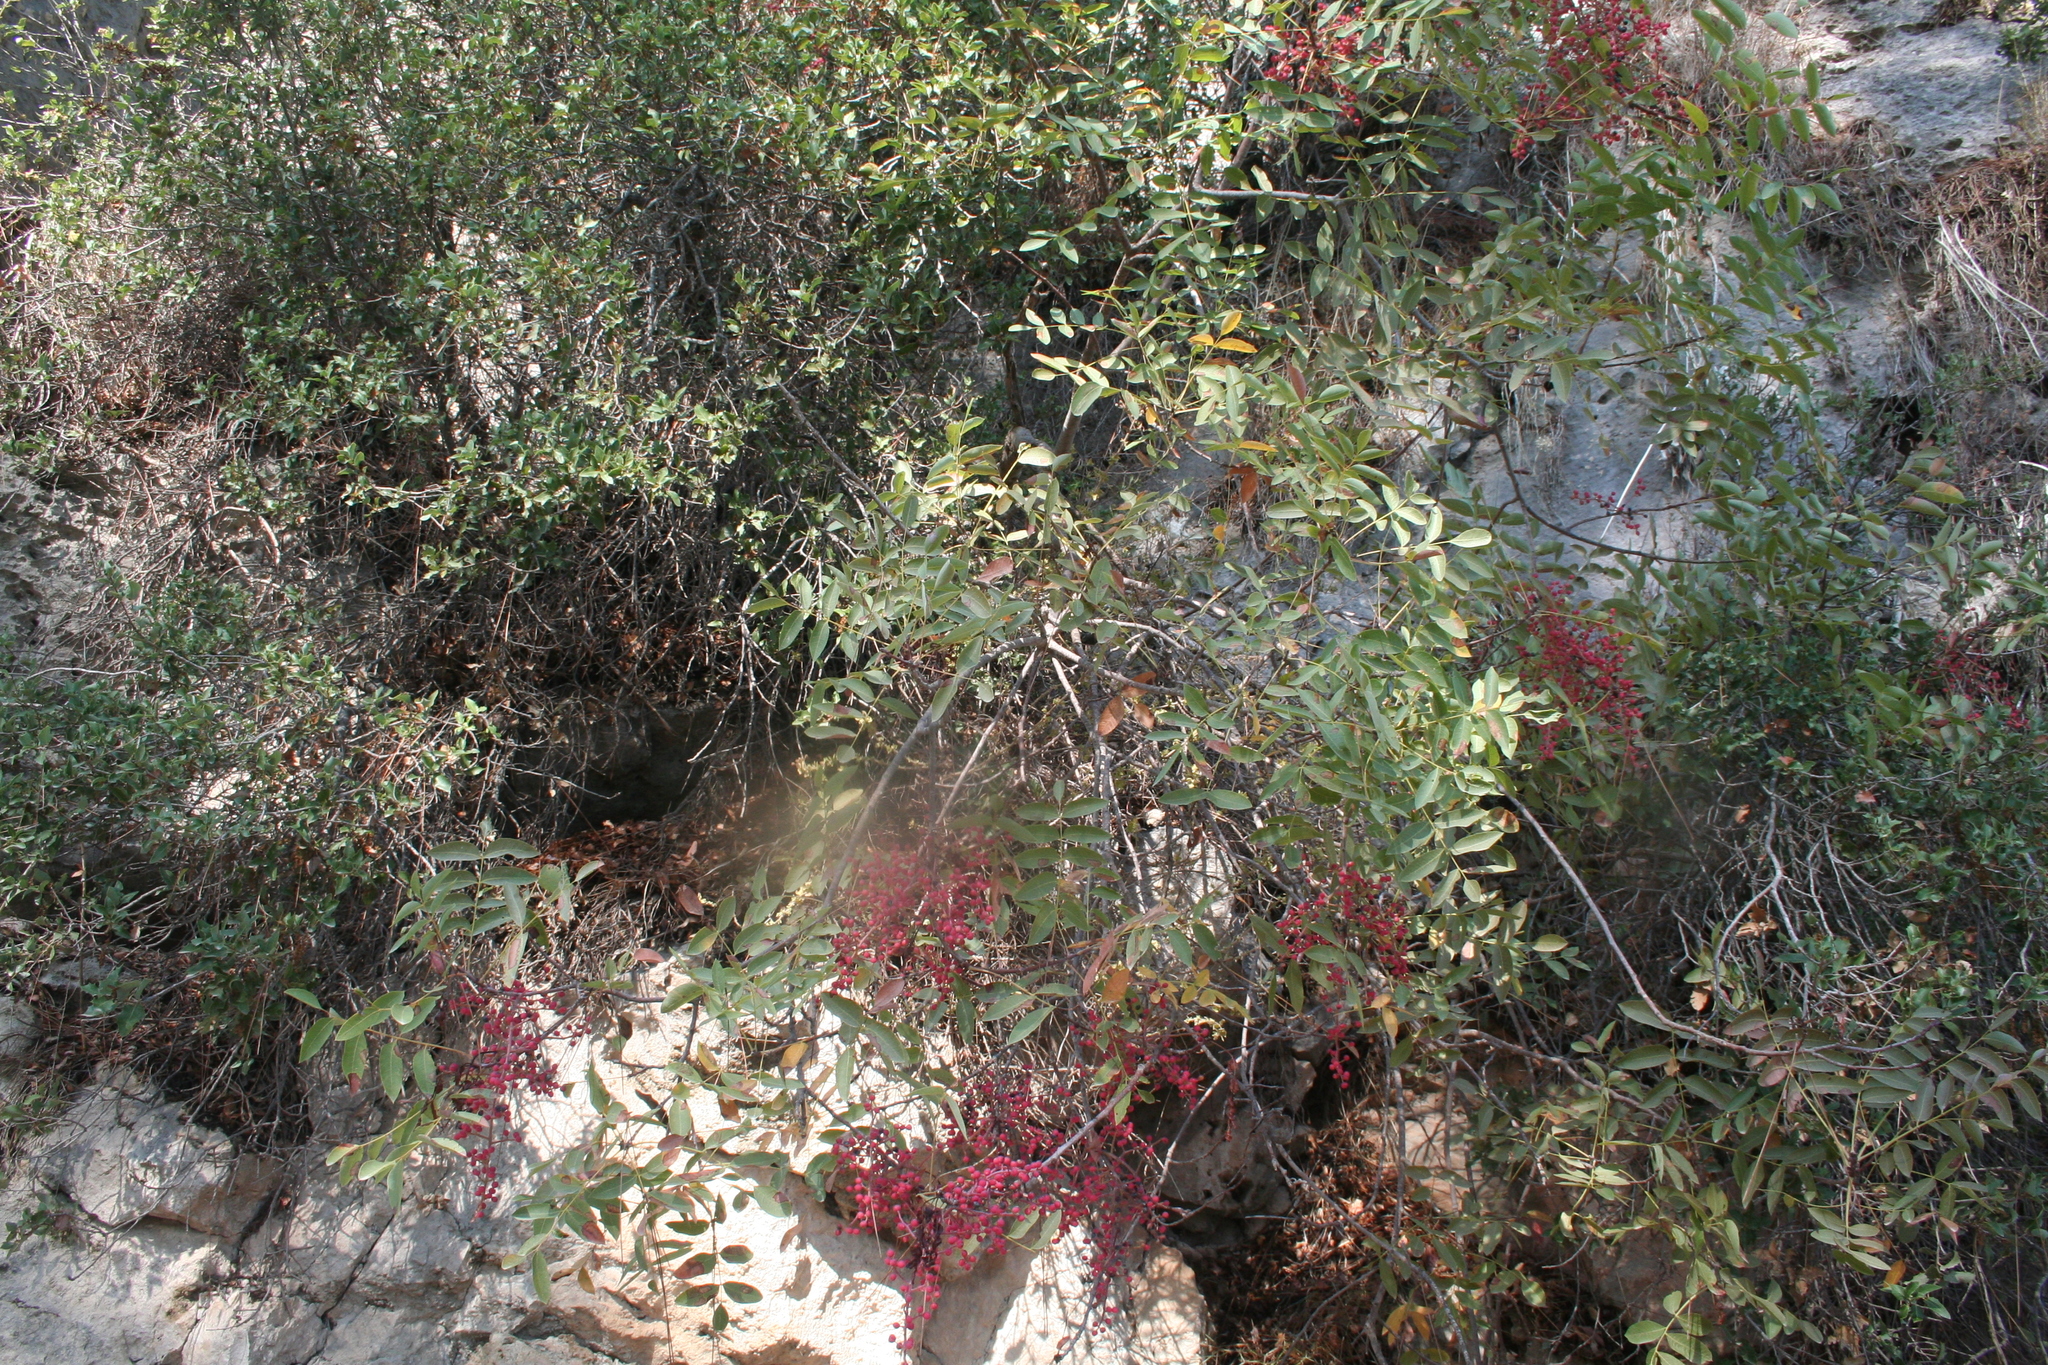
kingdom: Plantae
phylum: Tracheophyta
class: Magnoliopsida
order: Sapindales
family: Anacardiaceae
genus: Pistacia
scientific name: Pistacia terebinthus
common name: Terebinth
